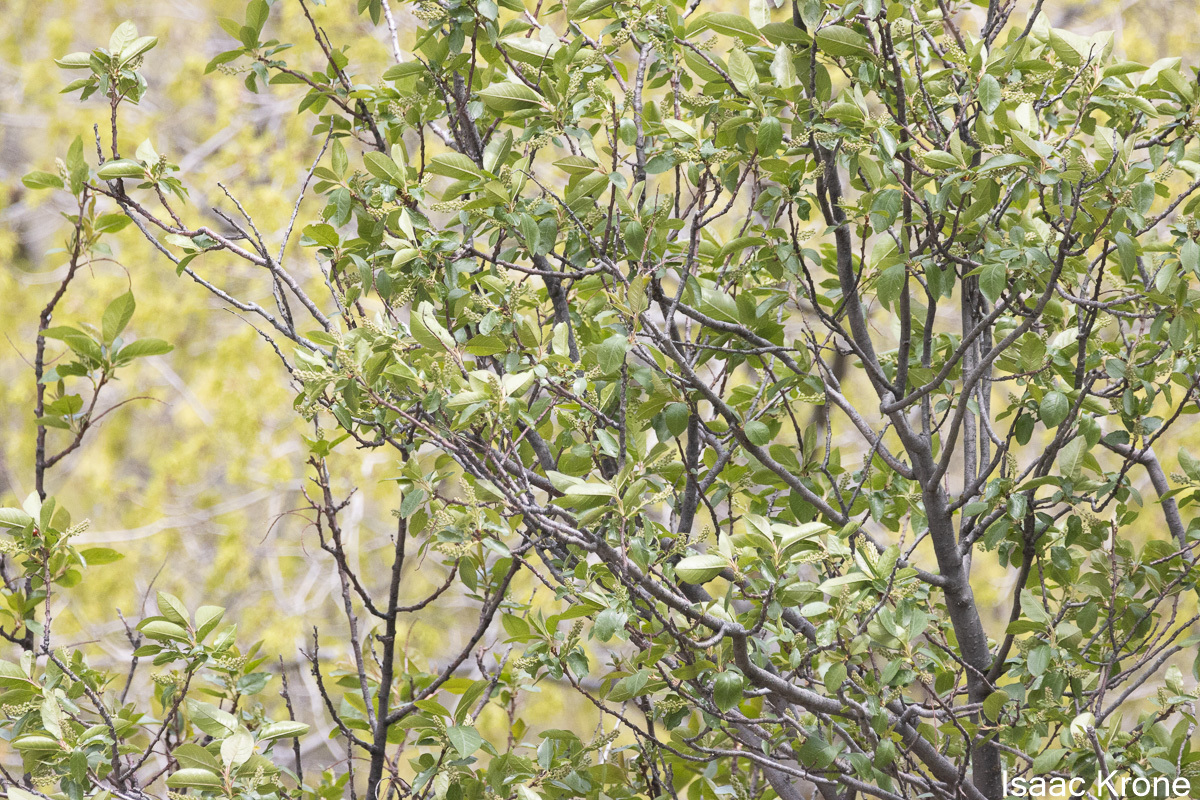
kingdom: Plantae
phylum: Tracheophyta
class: Magnoliopsida
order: Rosales
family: Rosaceae
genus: Prunus
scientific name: Prunus virginiana
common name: Chokecherry
